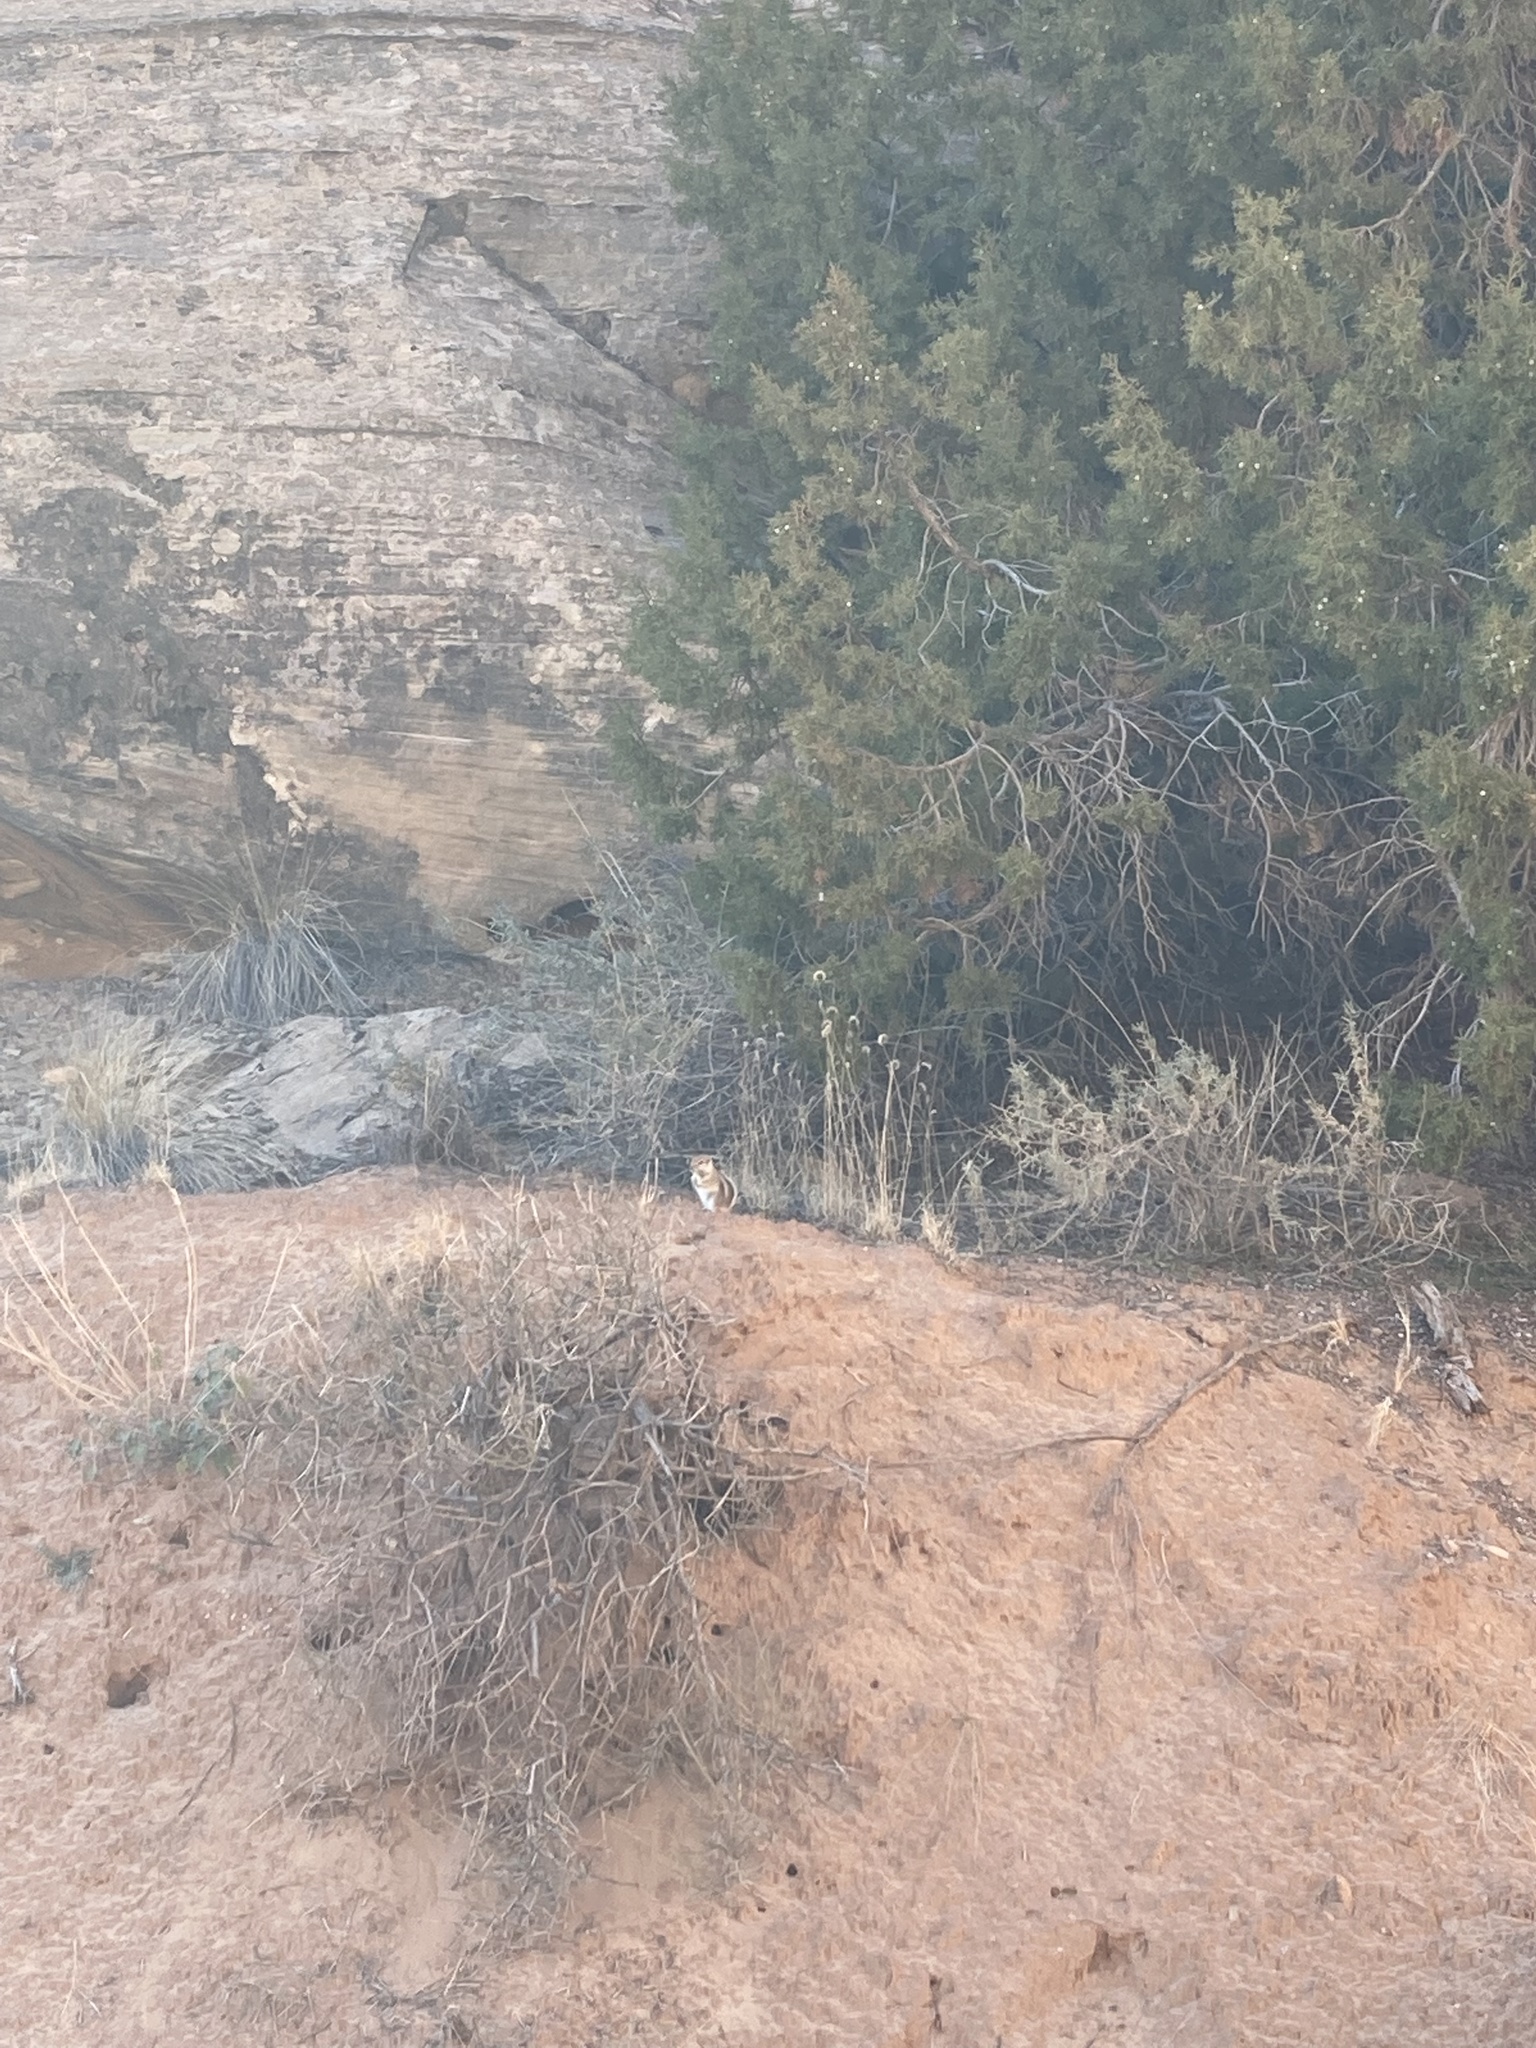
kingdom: Animalia
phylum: Chordata
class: Mammalia
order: Rodentia
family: Sciuridae
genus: Ammospermophilus
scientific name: Ammospermophilus leucurus
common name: White-tailed antelope squirrel
